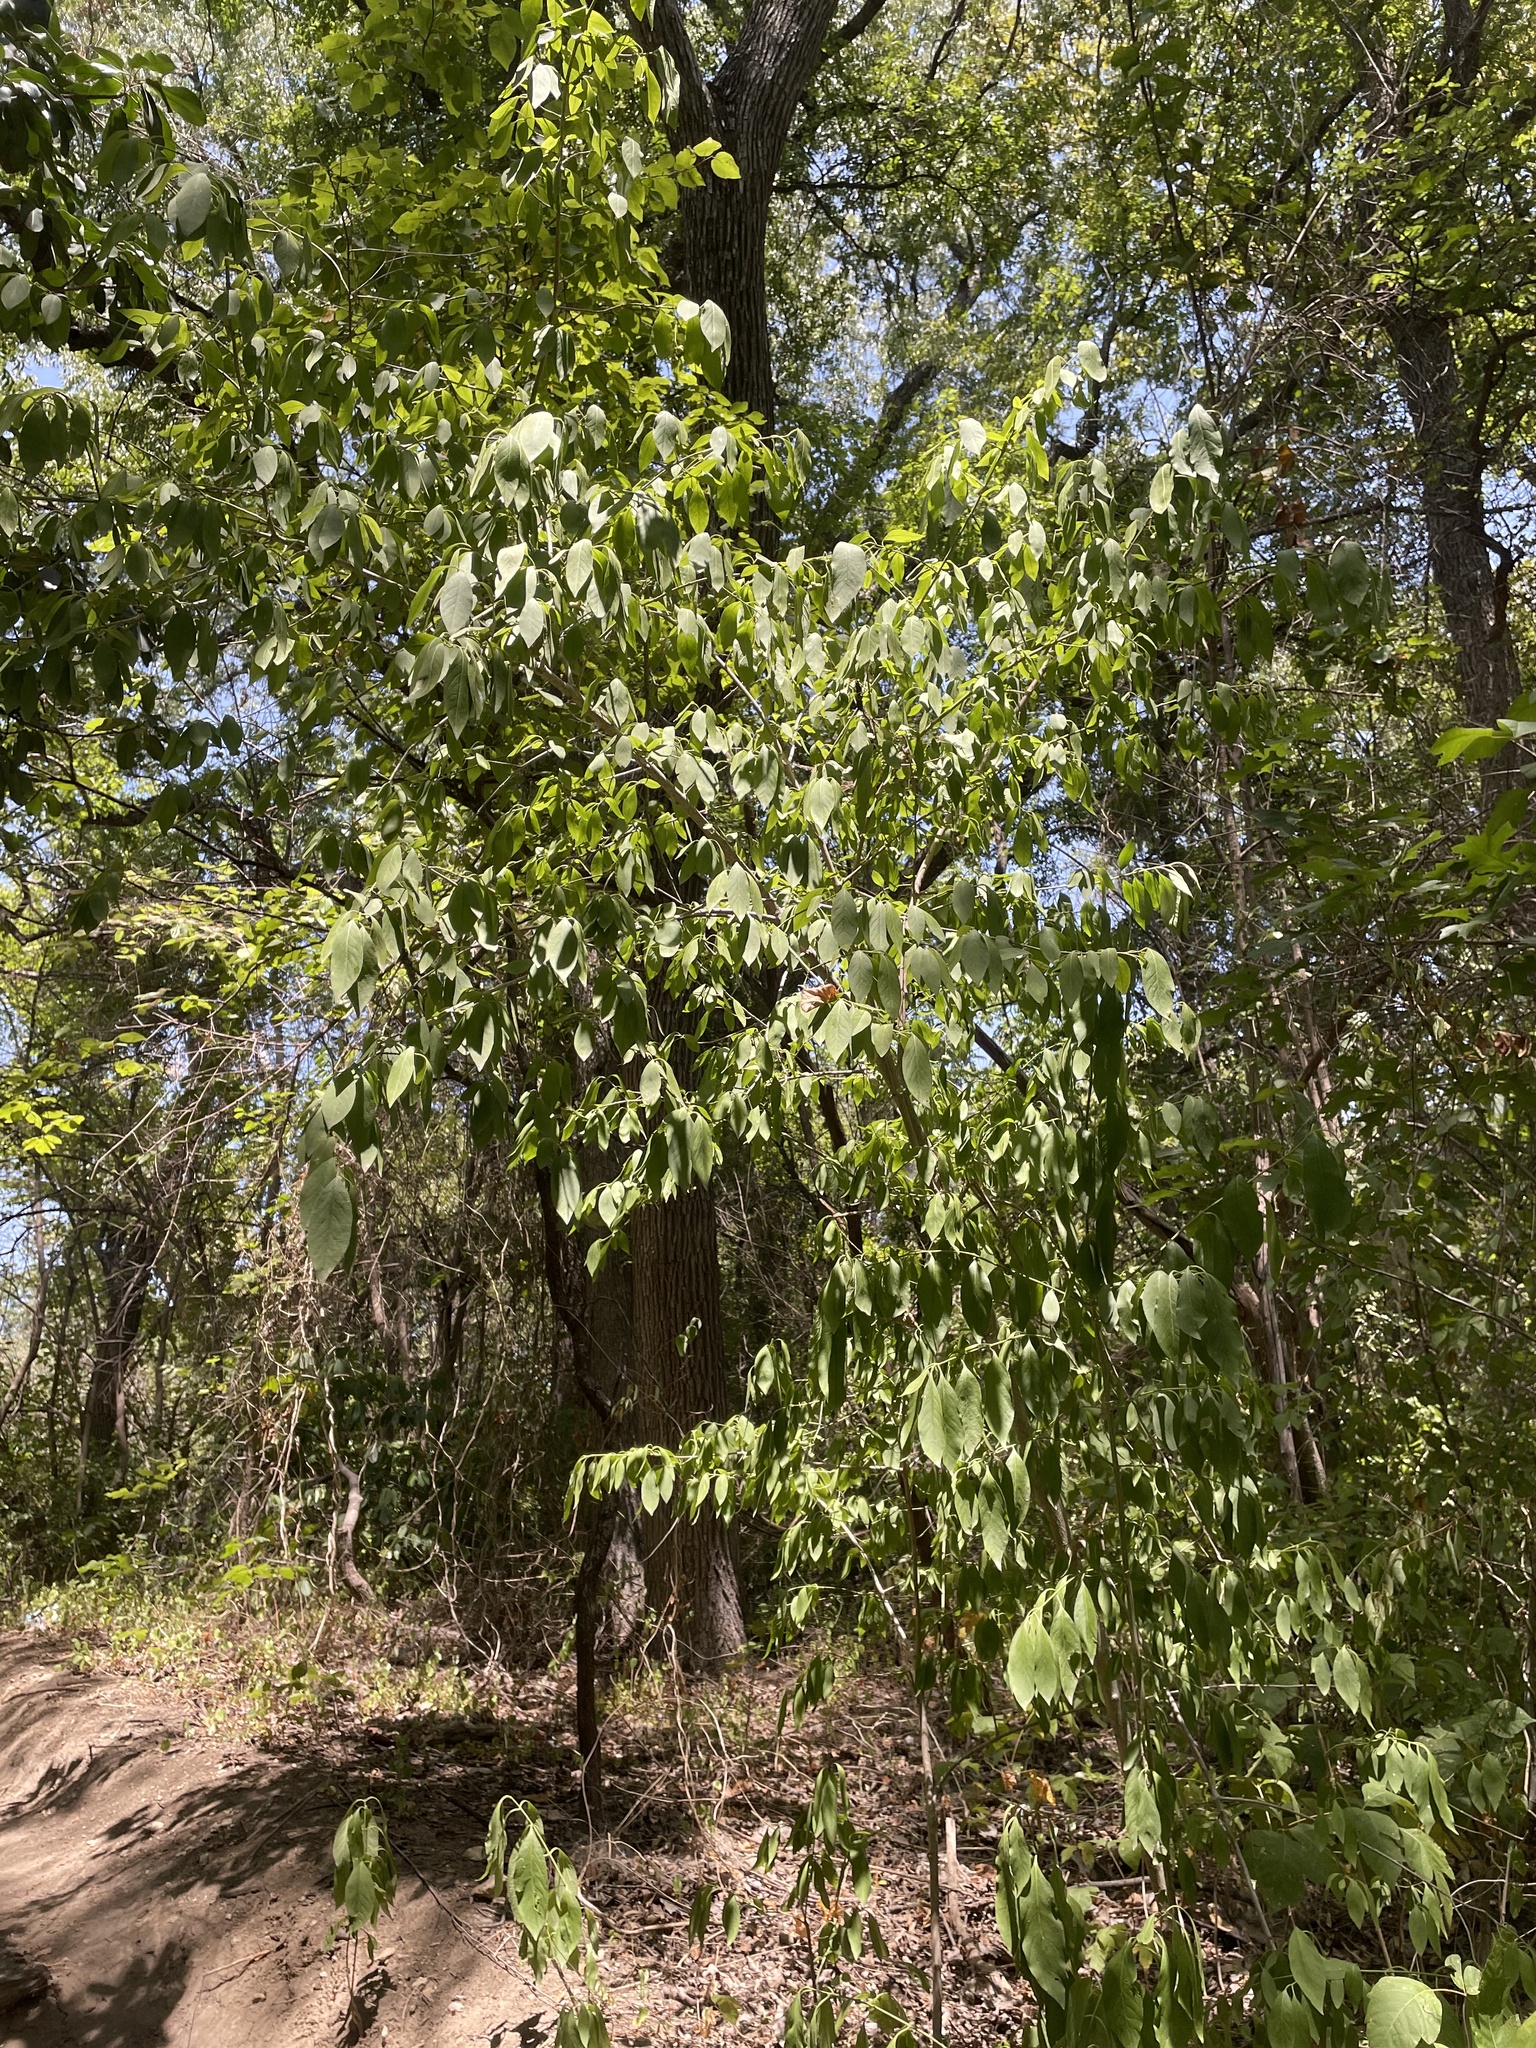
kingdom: Plantae
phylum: Tracheophyta
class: Magnoliopsida
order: Celastrales
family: Celastraceae
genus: Euonymus
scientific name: Euonymus atropurpureus
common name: Eastern wahoo
